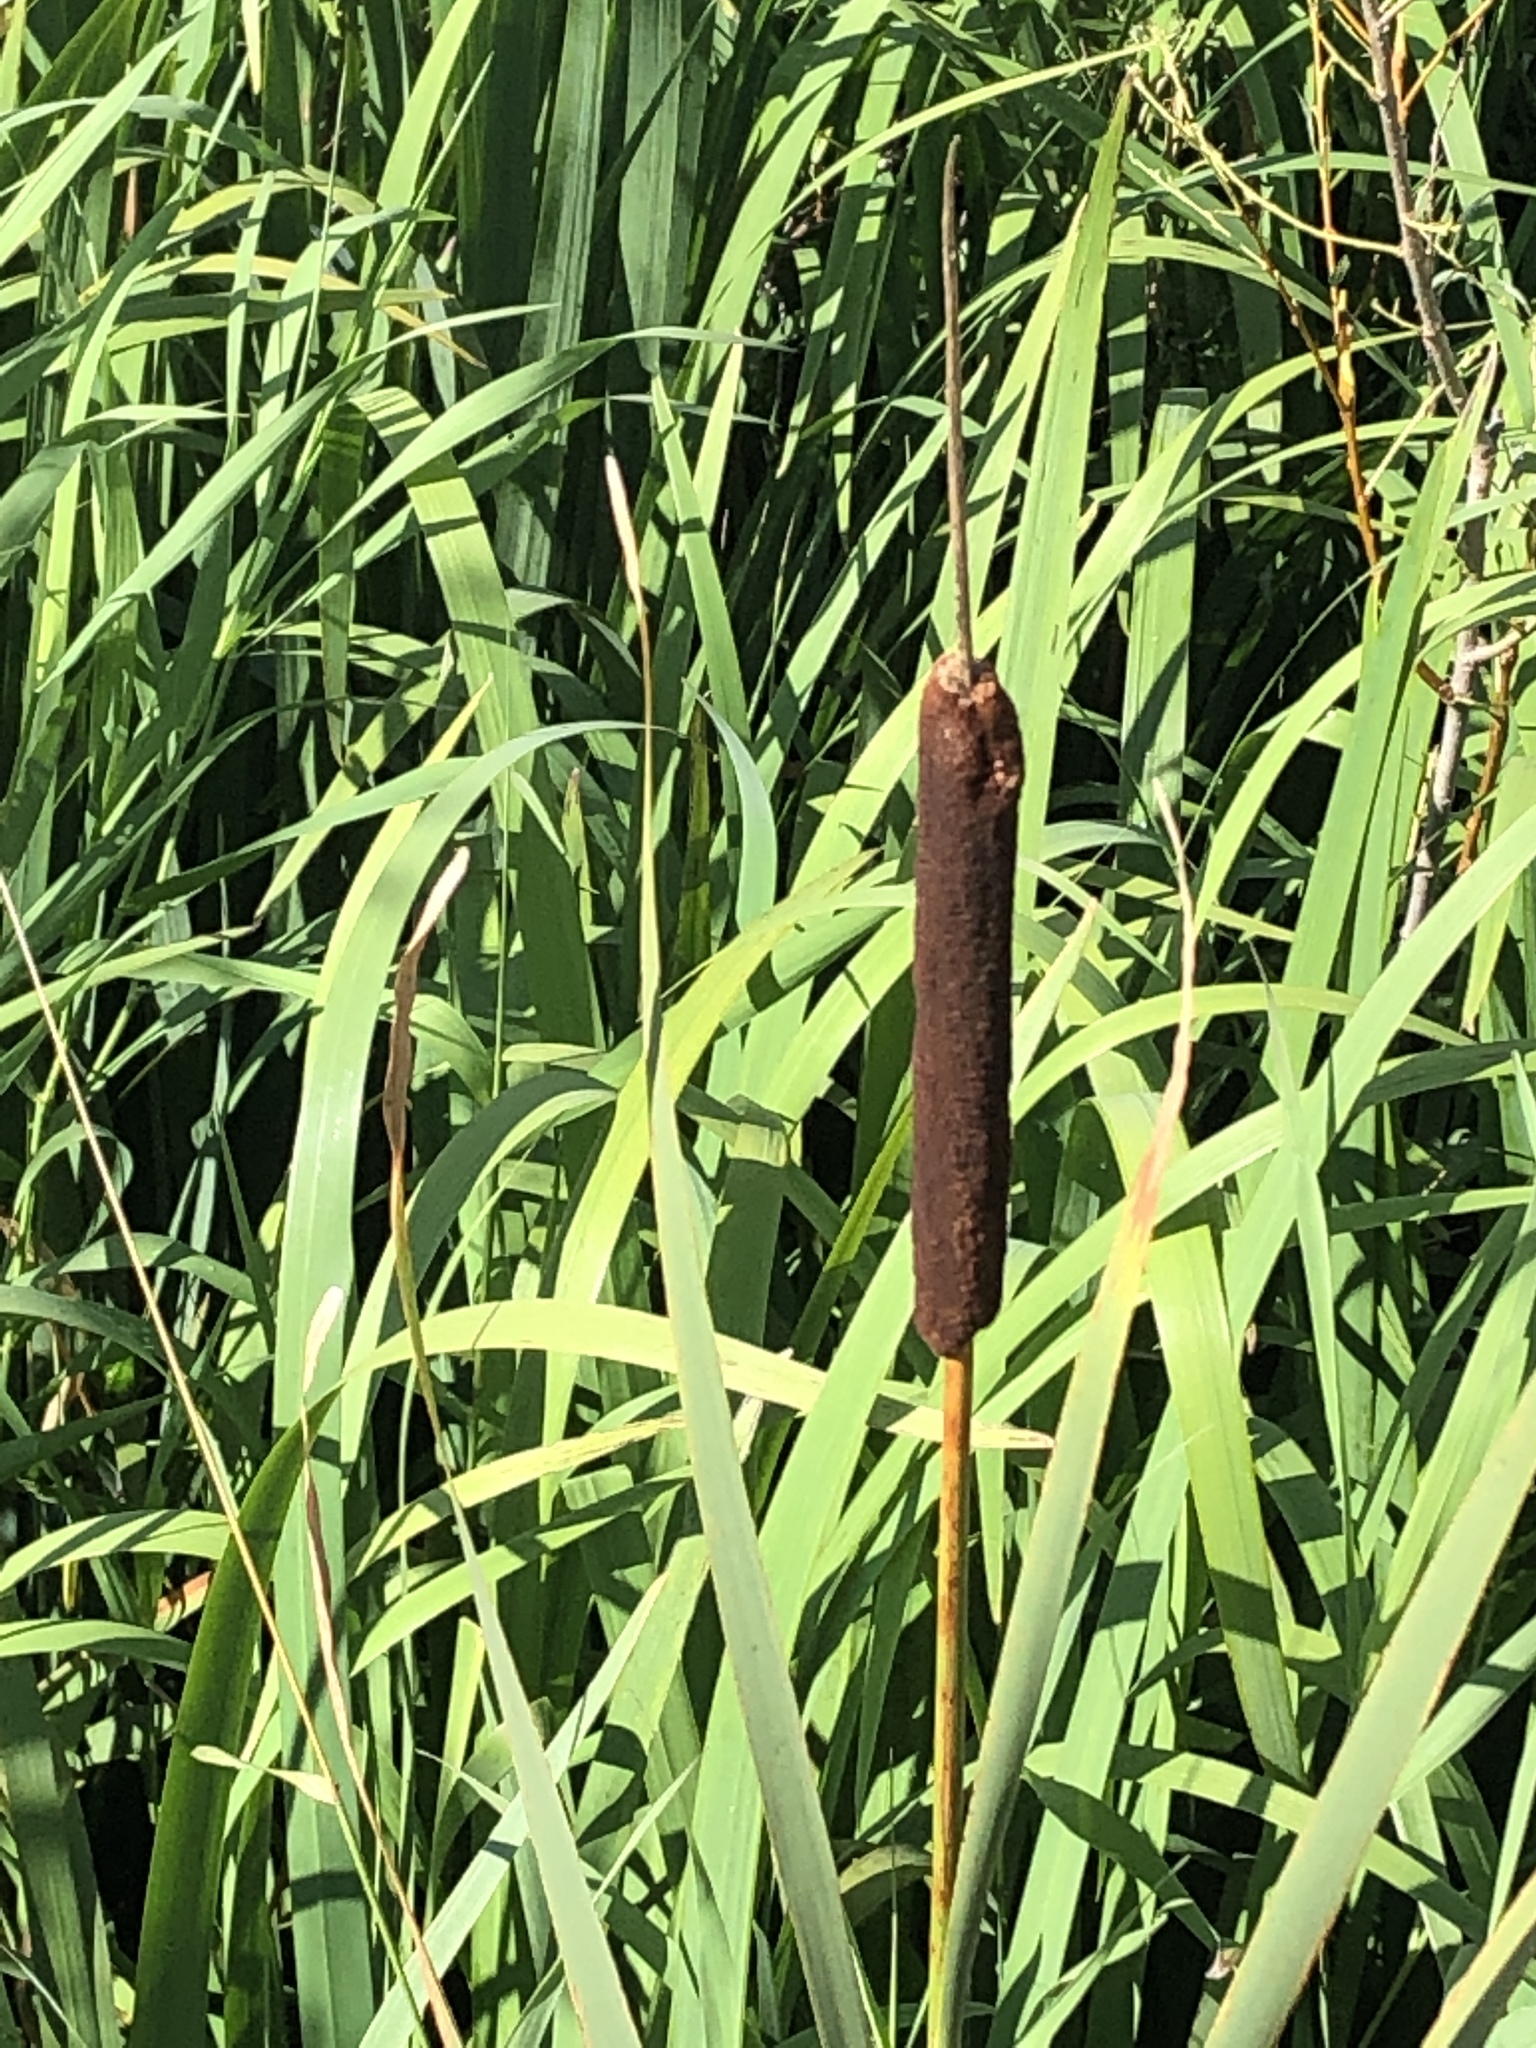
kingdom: Plantae
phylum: Tracheophyta
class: Liliopsida
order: Poales
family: Typhaceae
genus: Typha
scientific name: Typha latifolia
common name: Broadleaf cattail
